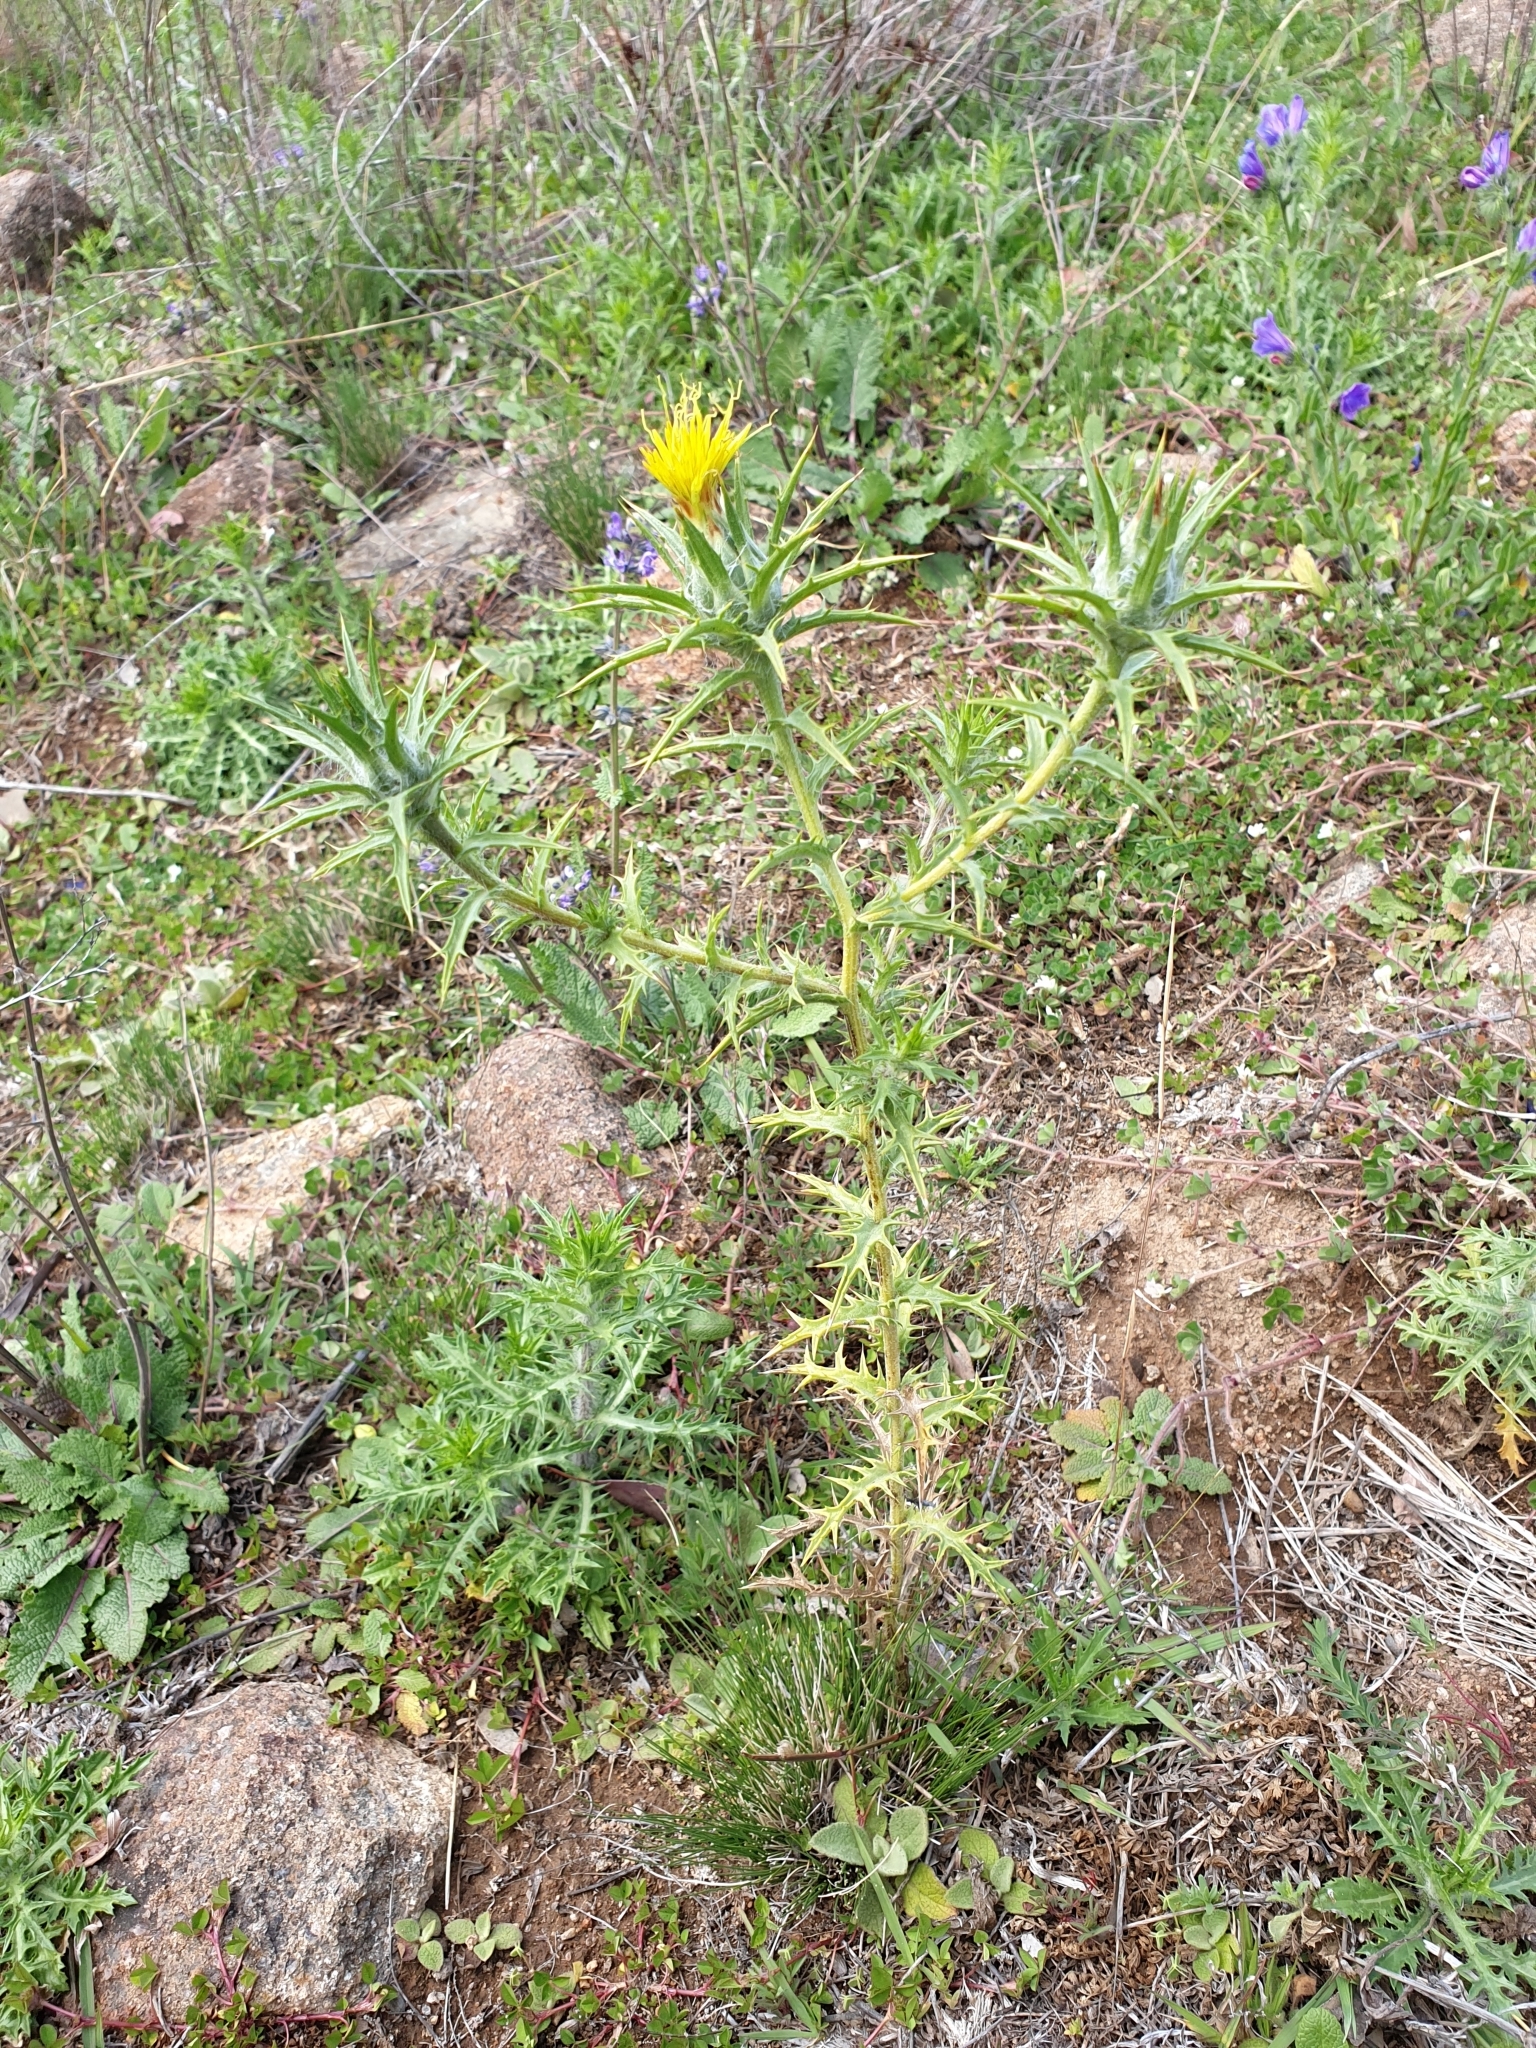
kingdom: Plantae
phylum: Tracheophyta
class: Magnoliopsida
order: Asterales
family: Asteraceae
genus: Carthamus
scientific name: Carthamus lanatus
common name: Downy safflower
